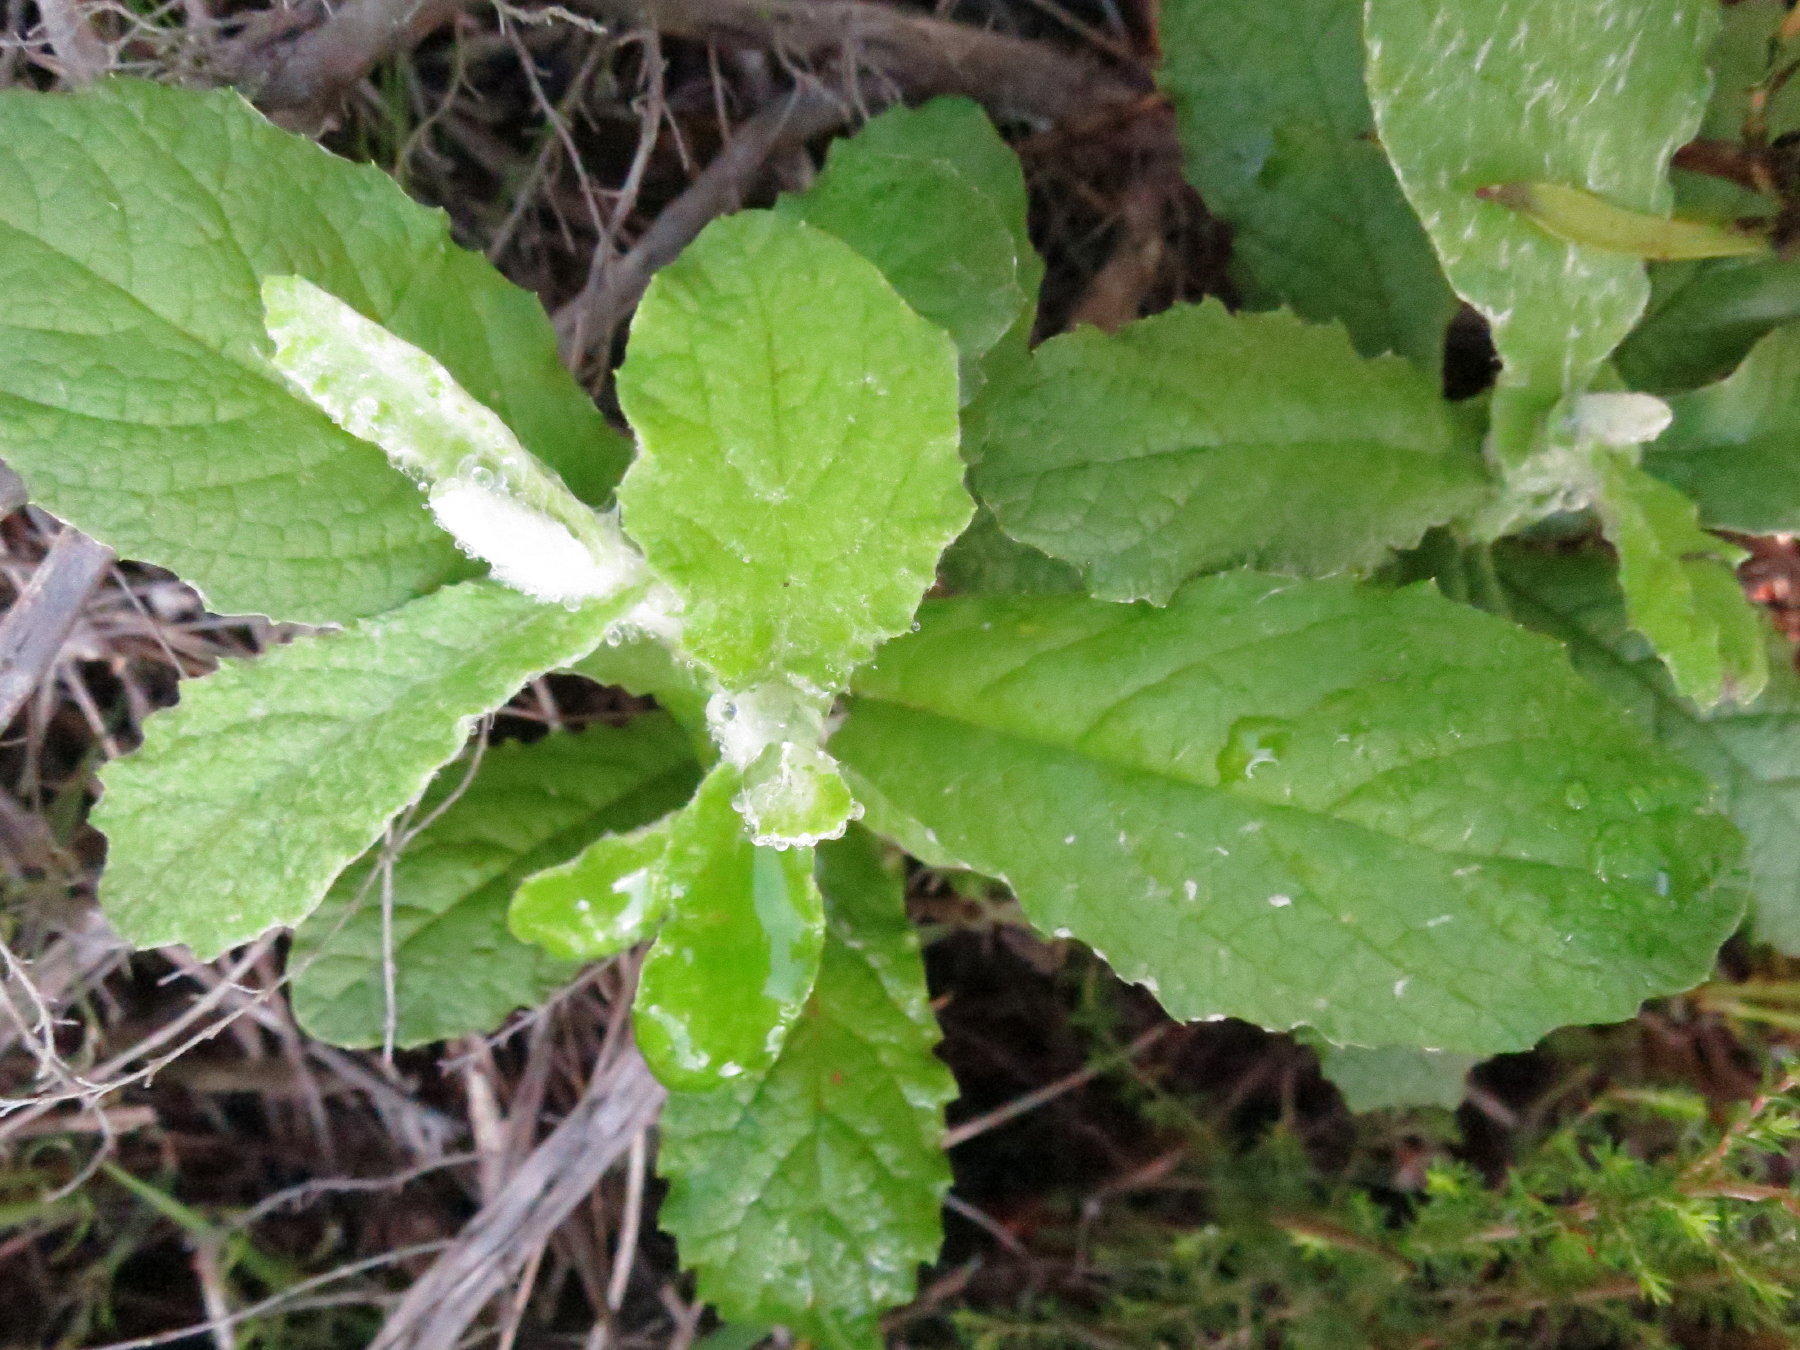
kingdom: Plantae
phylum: Tracheophyta
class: Magnoliopsida
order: Asterales
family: Asteraceae
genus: Tarchonanthus
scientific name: Tarchonanthus littoralis
